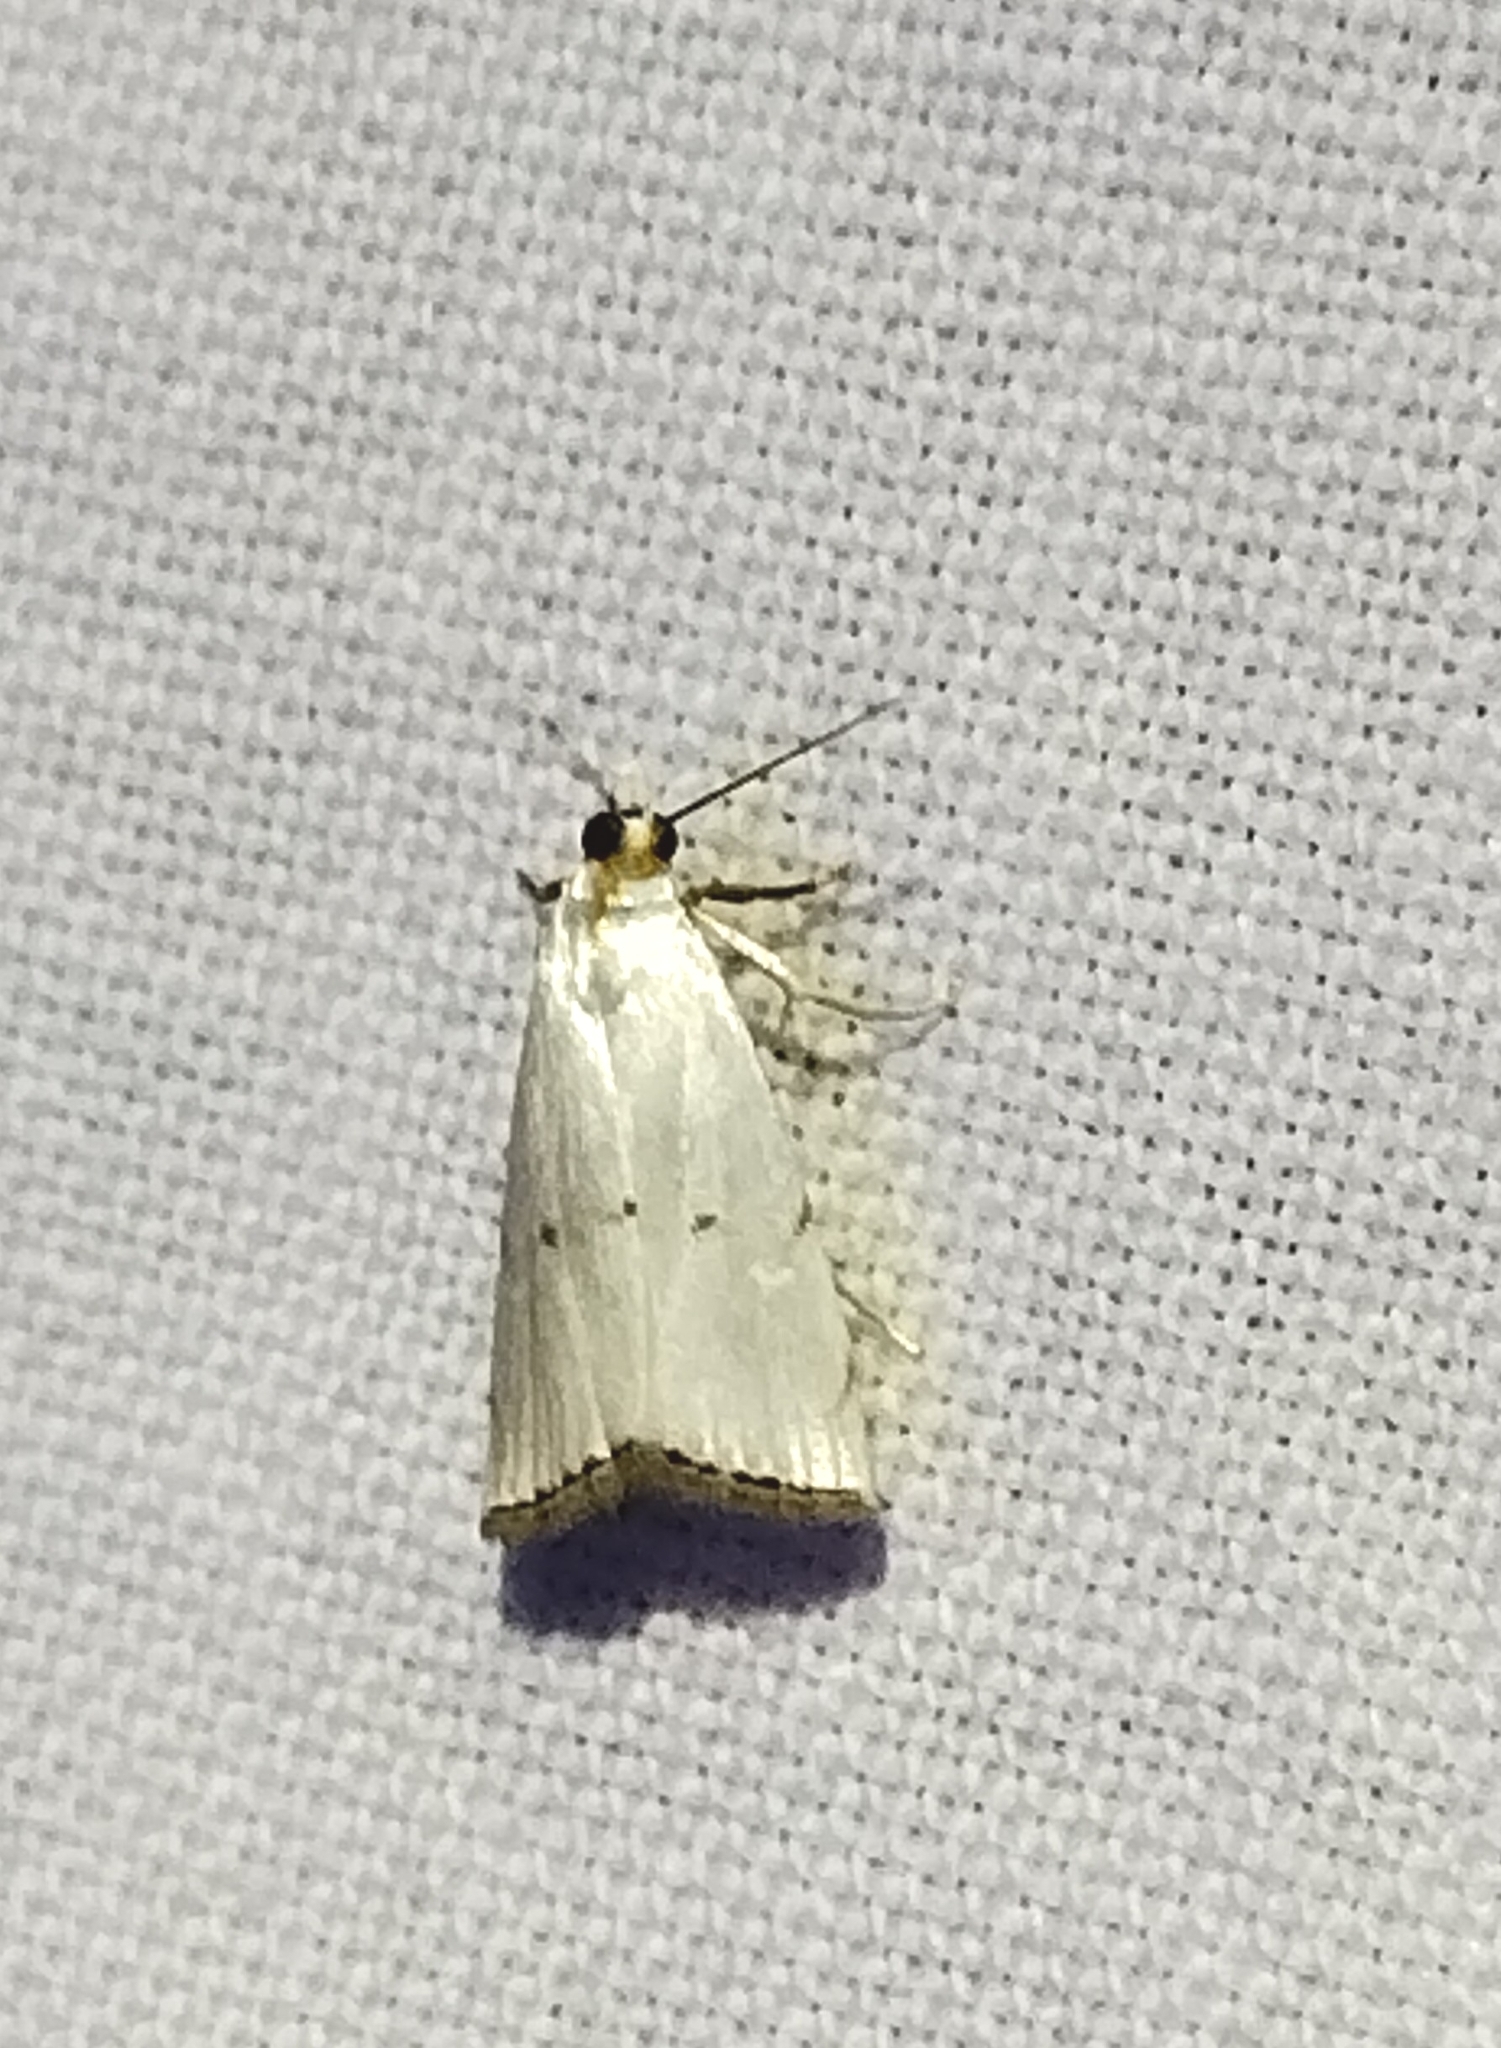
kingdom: Animalia
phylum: Arthropoda
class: Insecta
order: Lepidoptera
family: Crambidae
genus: Argyria
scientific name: Argyria pusillalis
